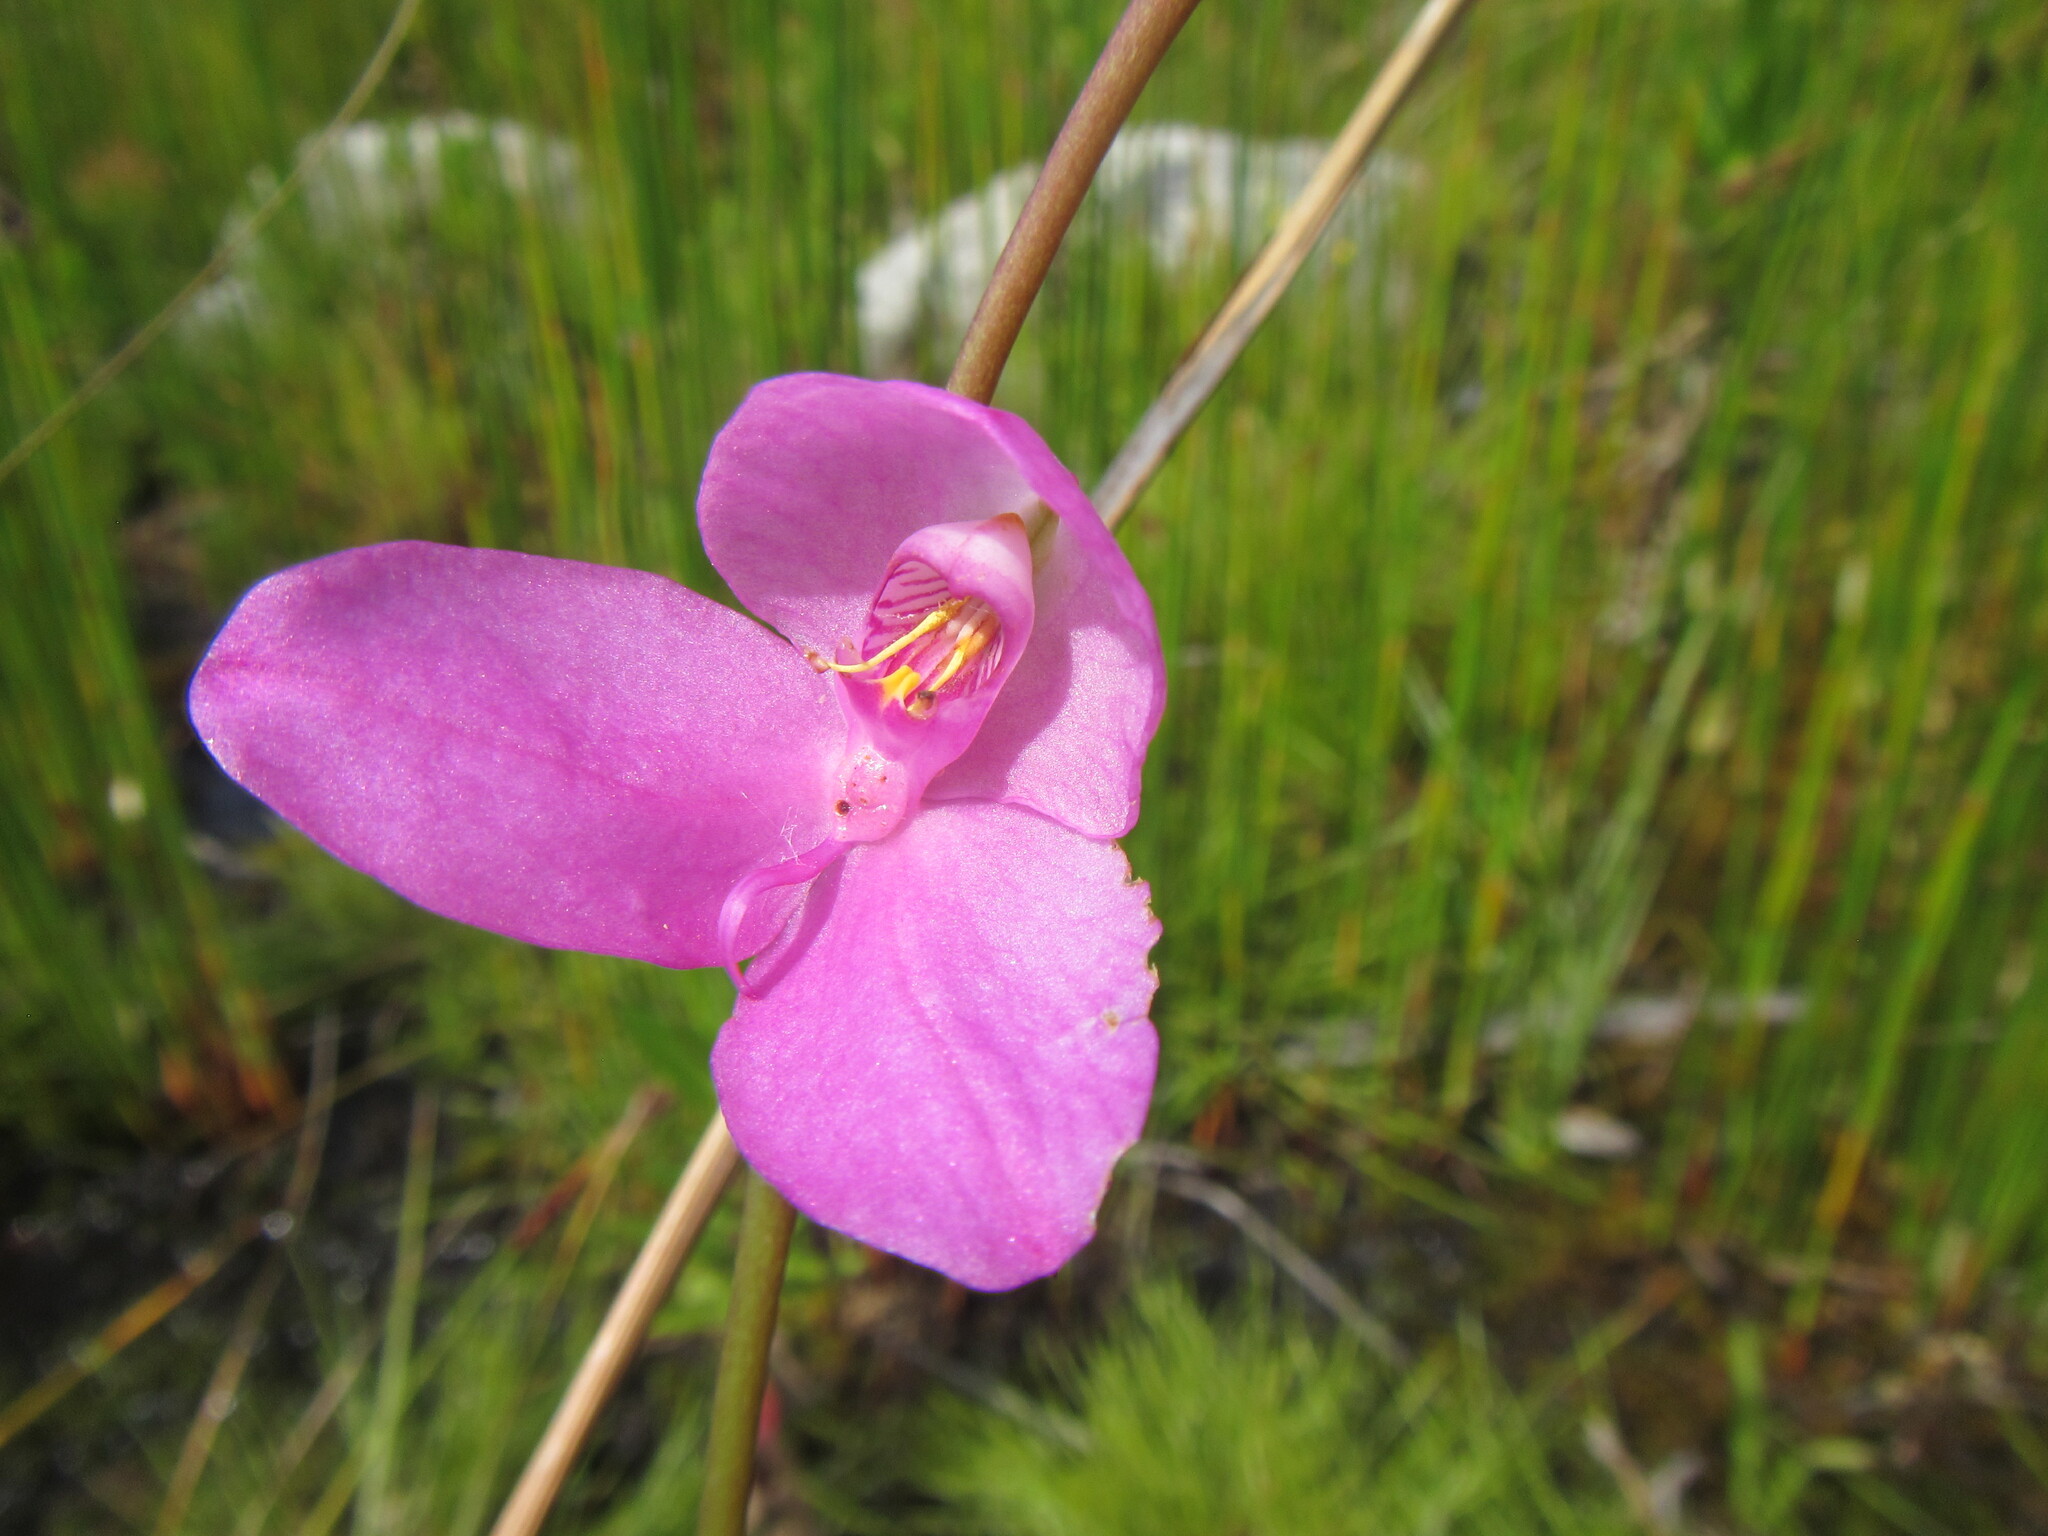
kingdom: Plantae
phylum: Tracheophyta
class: Liliopsida
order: Asparagales
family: Orchidaceae
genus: Disa
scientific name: Disa racemosa
